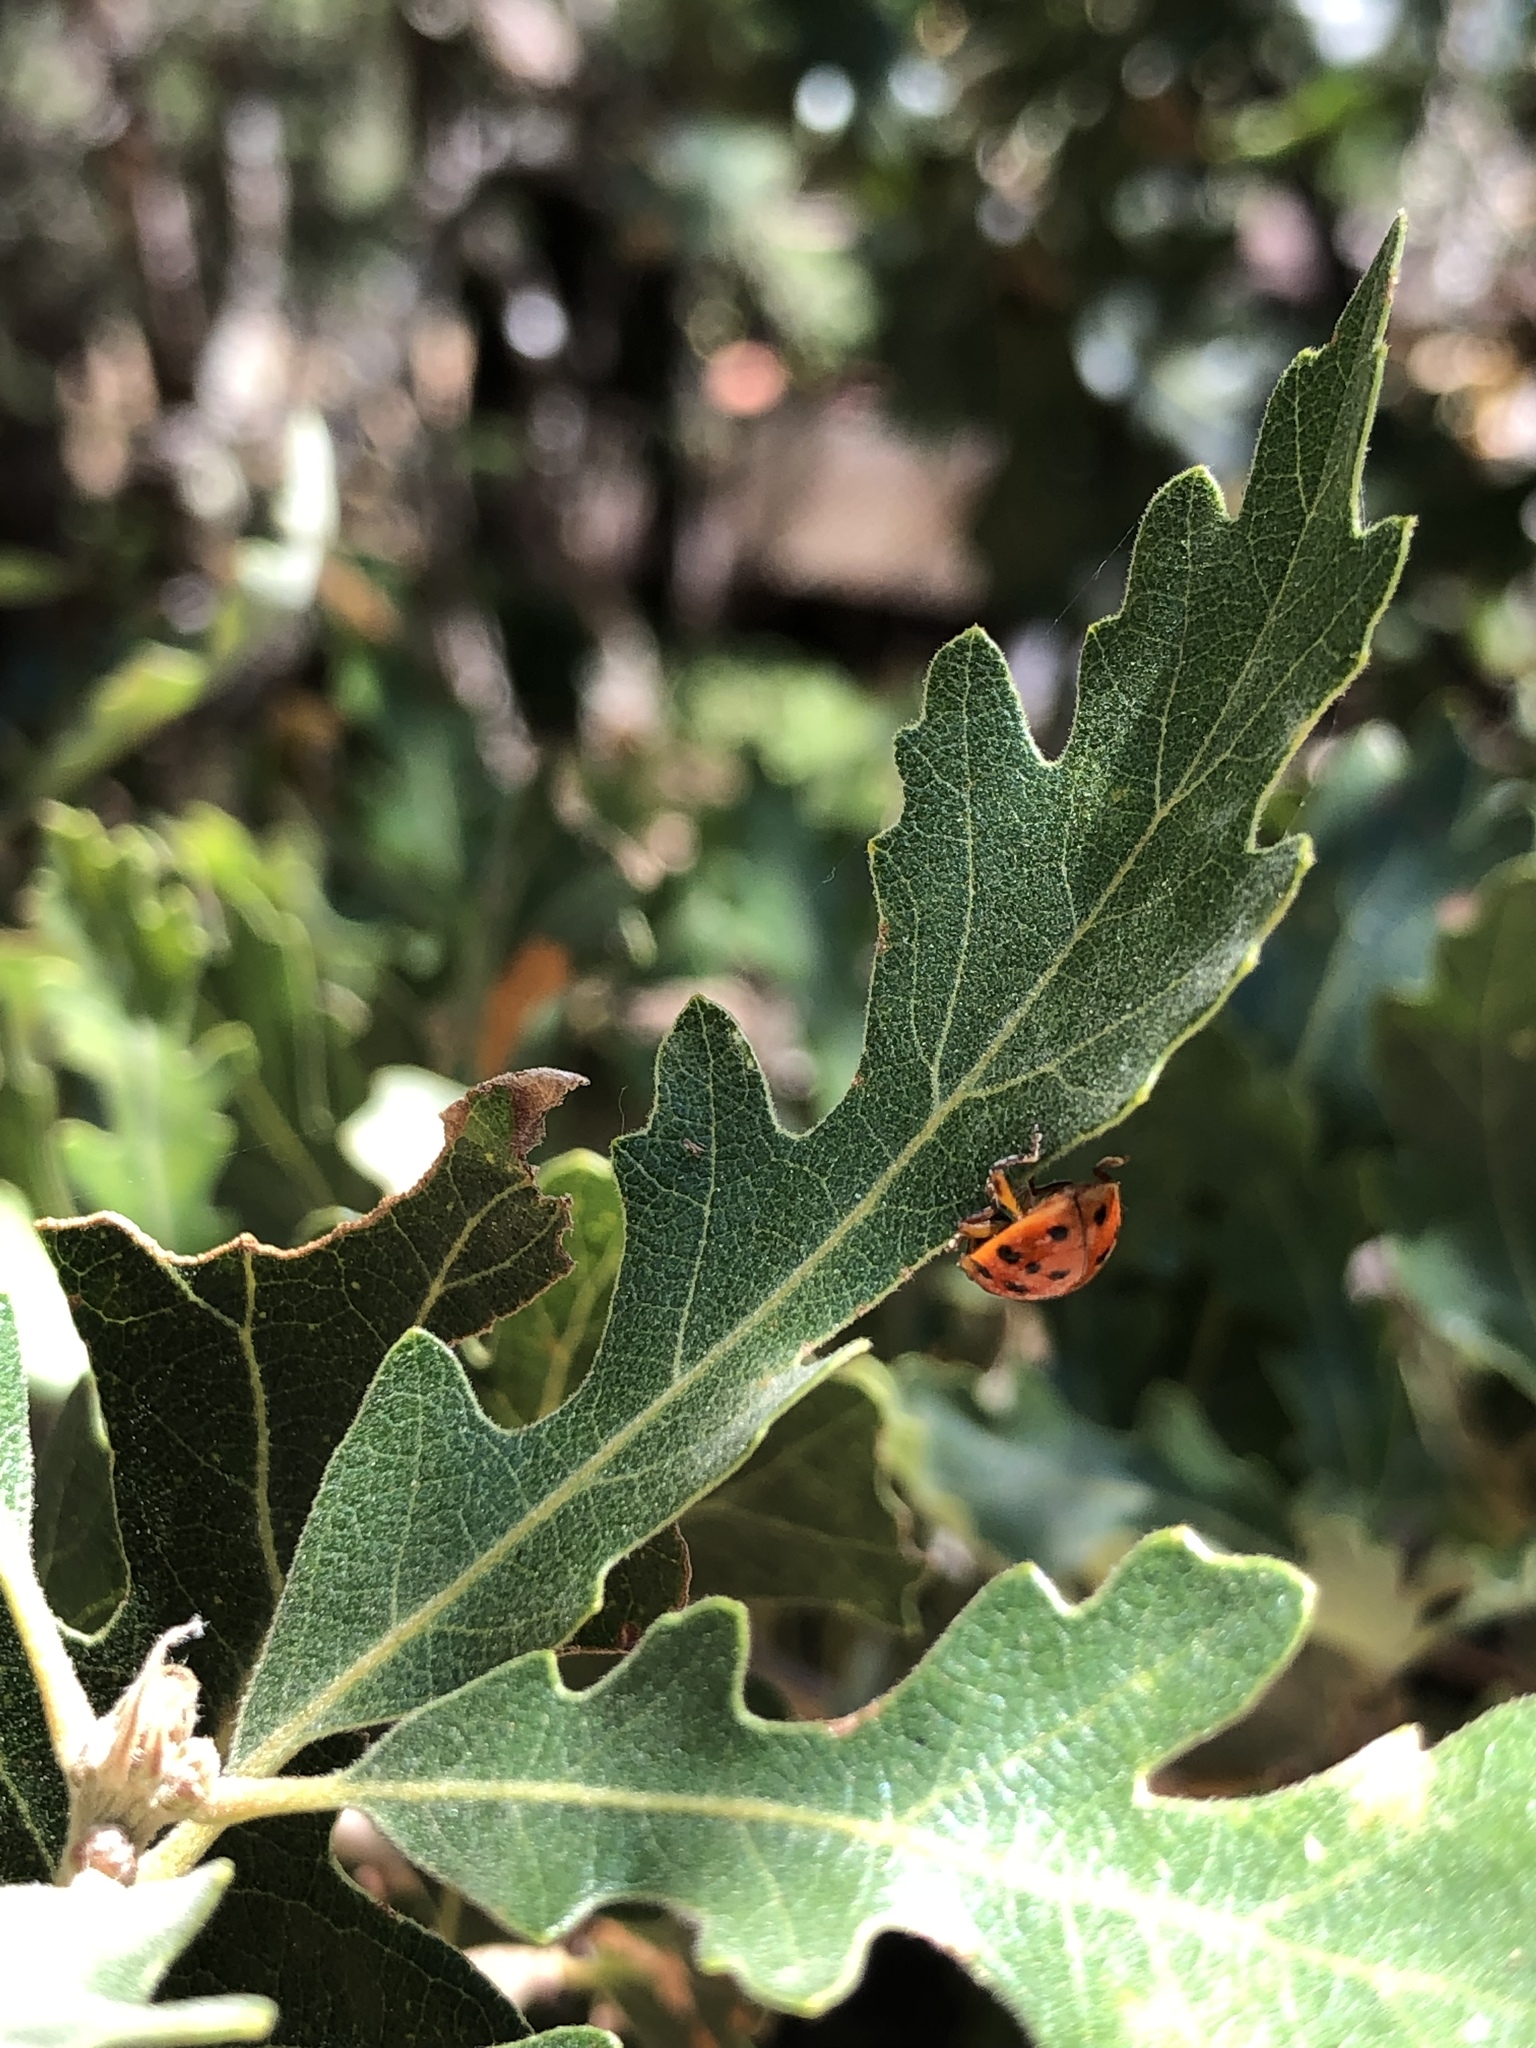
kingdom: Animalia
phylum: Arthropoda
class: Insecta
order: Coleoptera
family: Coccinellidae
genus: Harmonia
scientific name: Harmonia axyridis
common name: Harlequin ladybird
